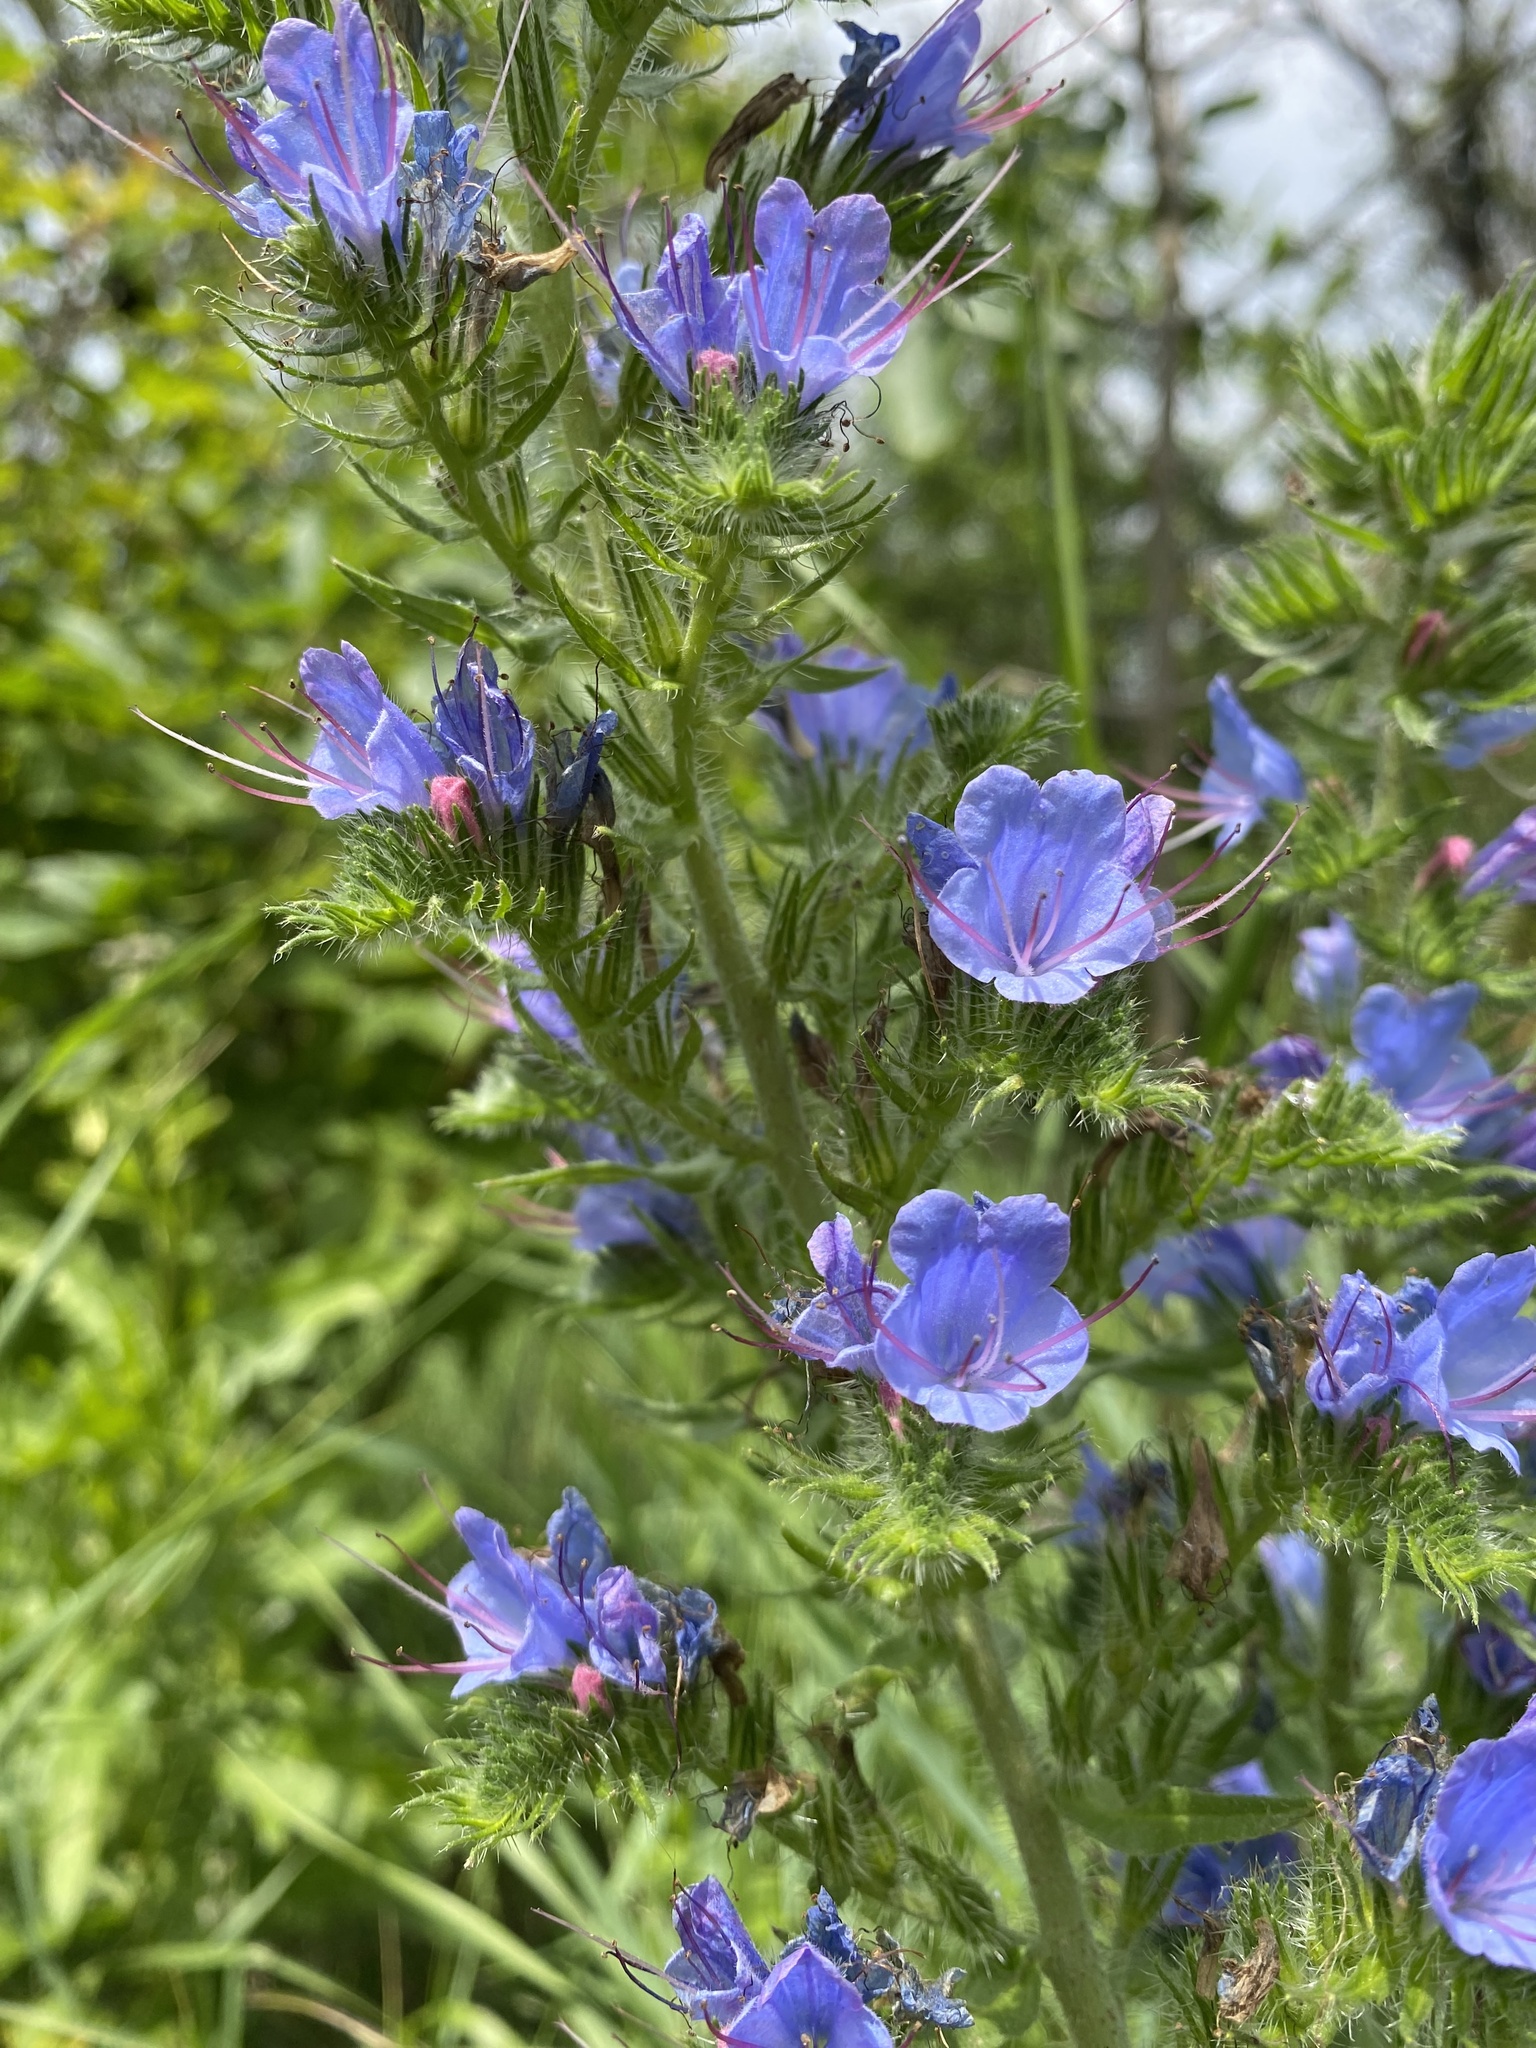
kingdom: Plantae
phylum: Tracheophyta
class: Magnoliopsida
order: Boraginales
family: Boraginaceae
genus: Echium
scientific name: Echium vulgare
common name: Common viper's bugloss
